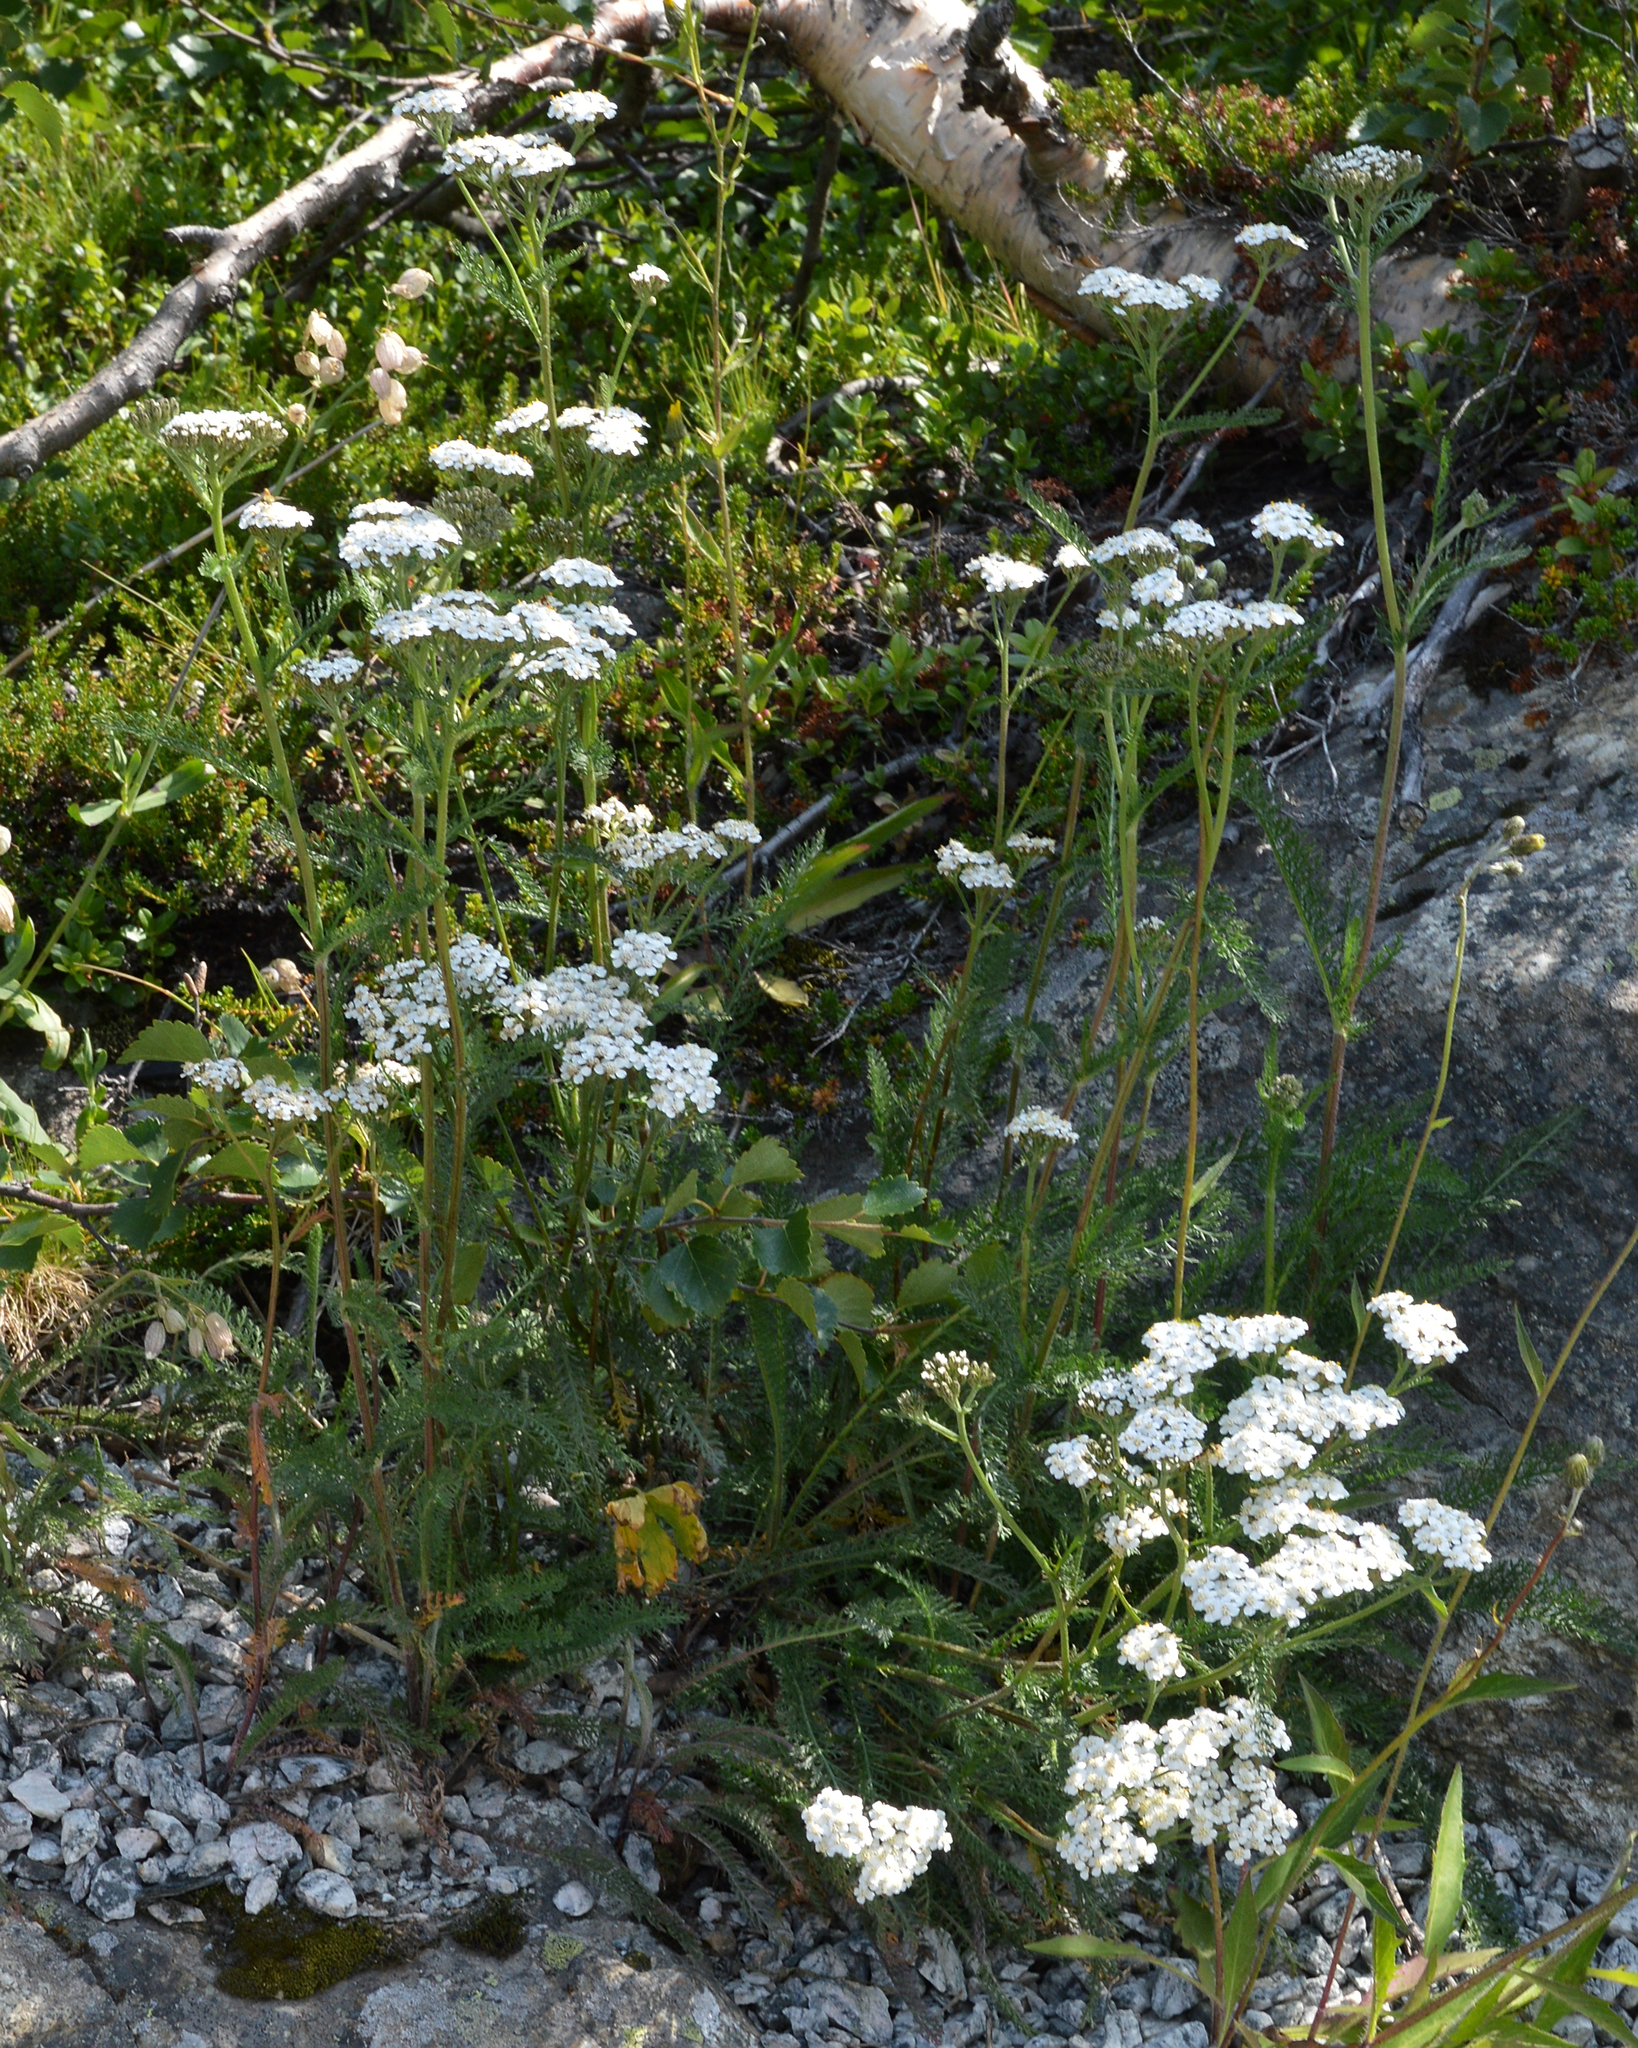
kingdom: Plantae
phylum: Tracheophyta
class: Magnoliopsida
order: Asterales
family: Asteraceae
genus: Achillea
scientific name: Achillea millefolium
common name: Yarrow
